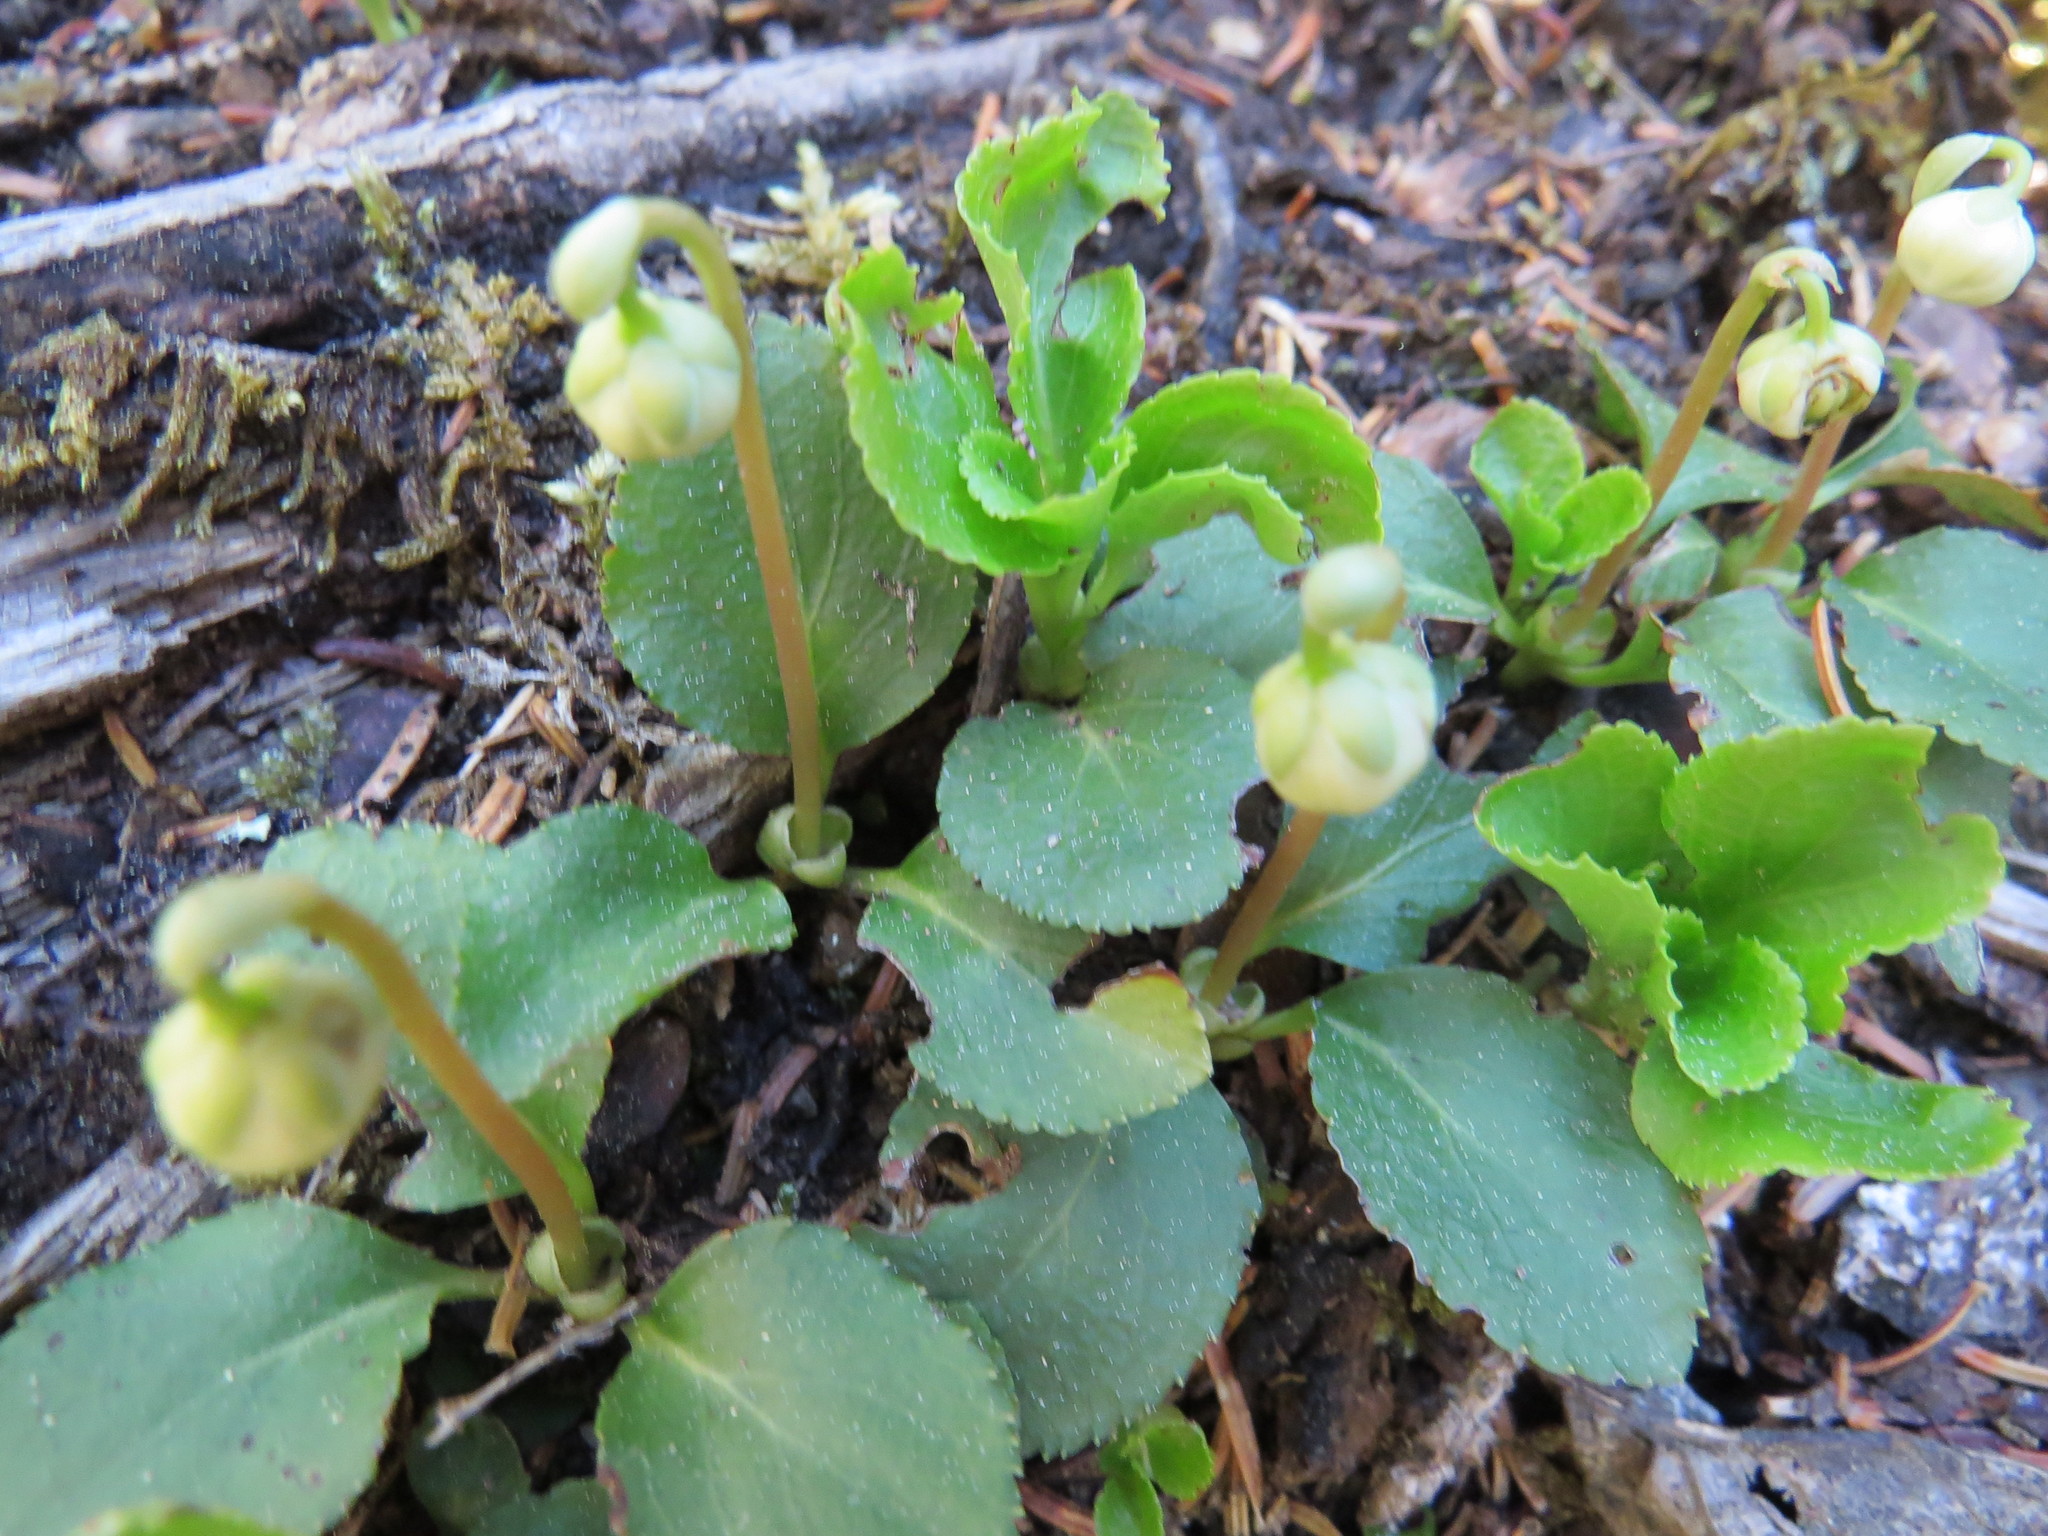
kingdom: Plantae
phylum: Tracheophyta
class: Magnoliopsida
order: Ericales
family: Ericaceae
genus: Moneses
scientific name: Moneses uniflora
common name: One-flowered wintergreen
